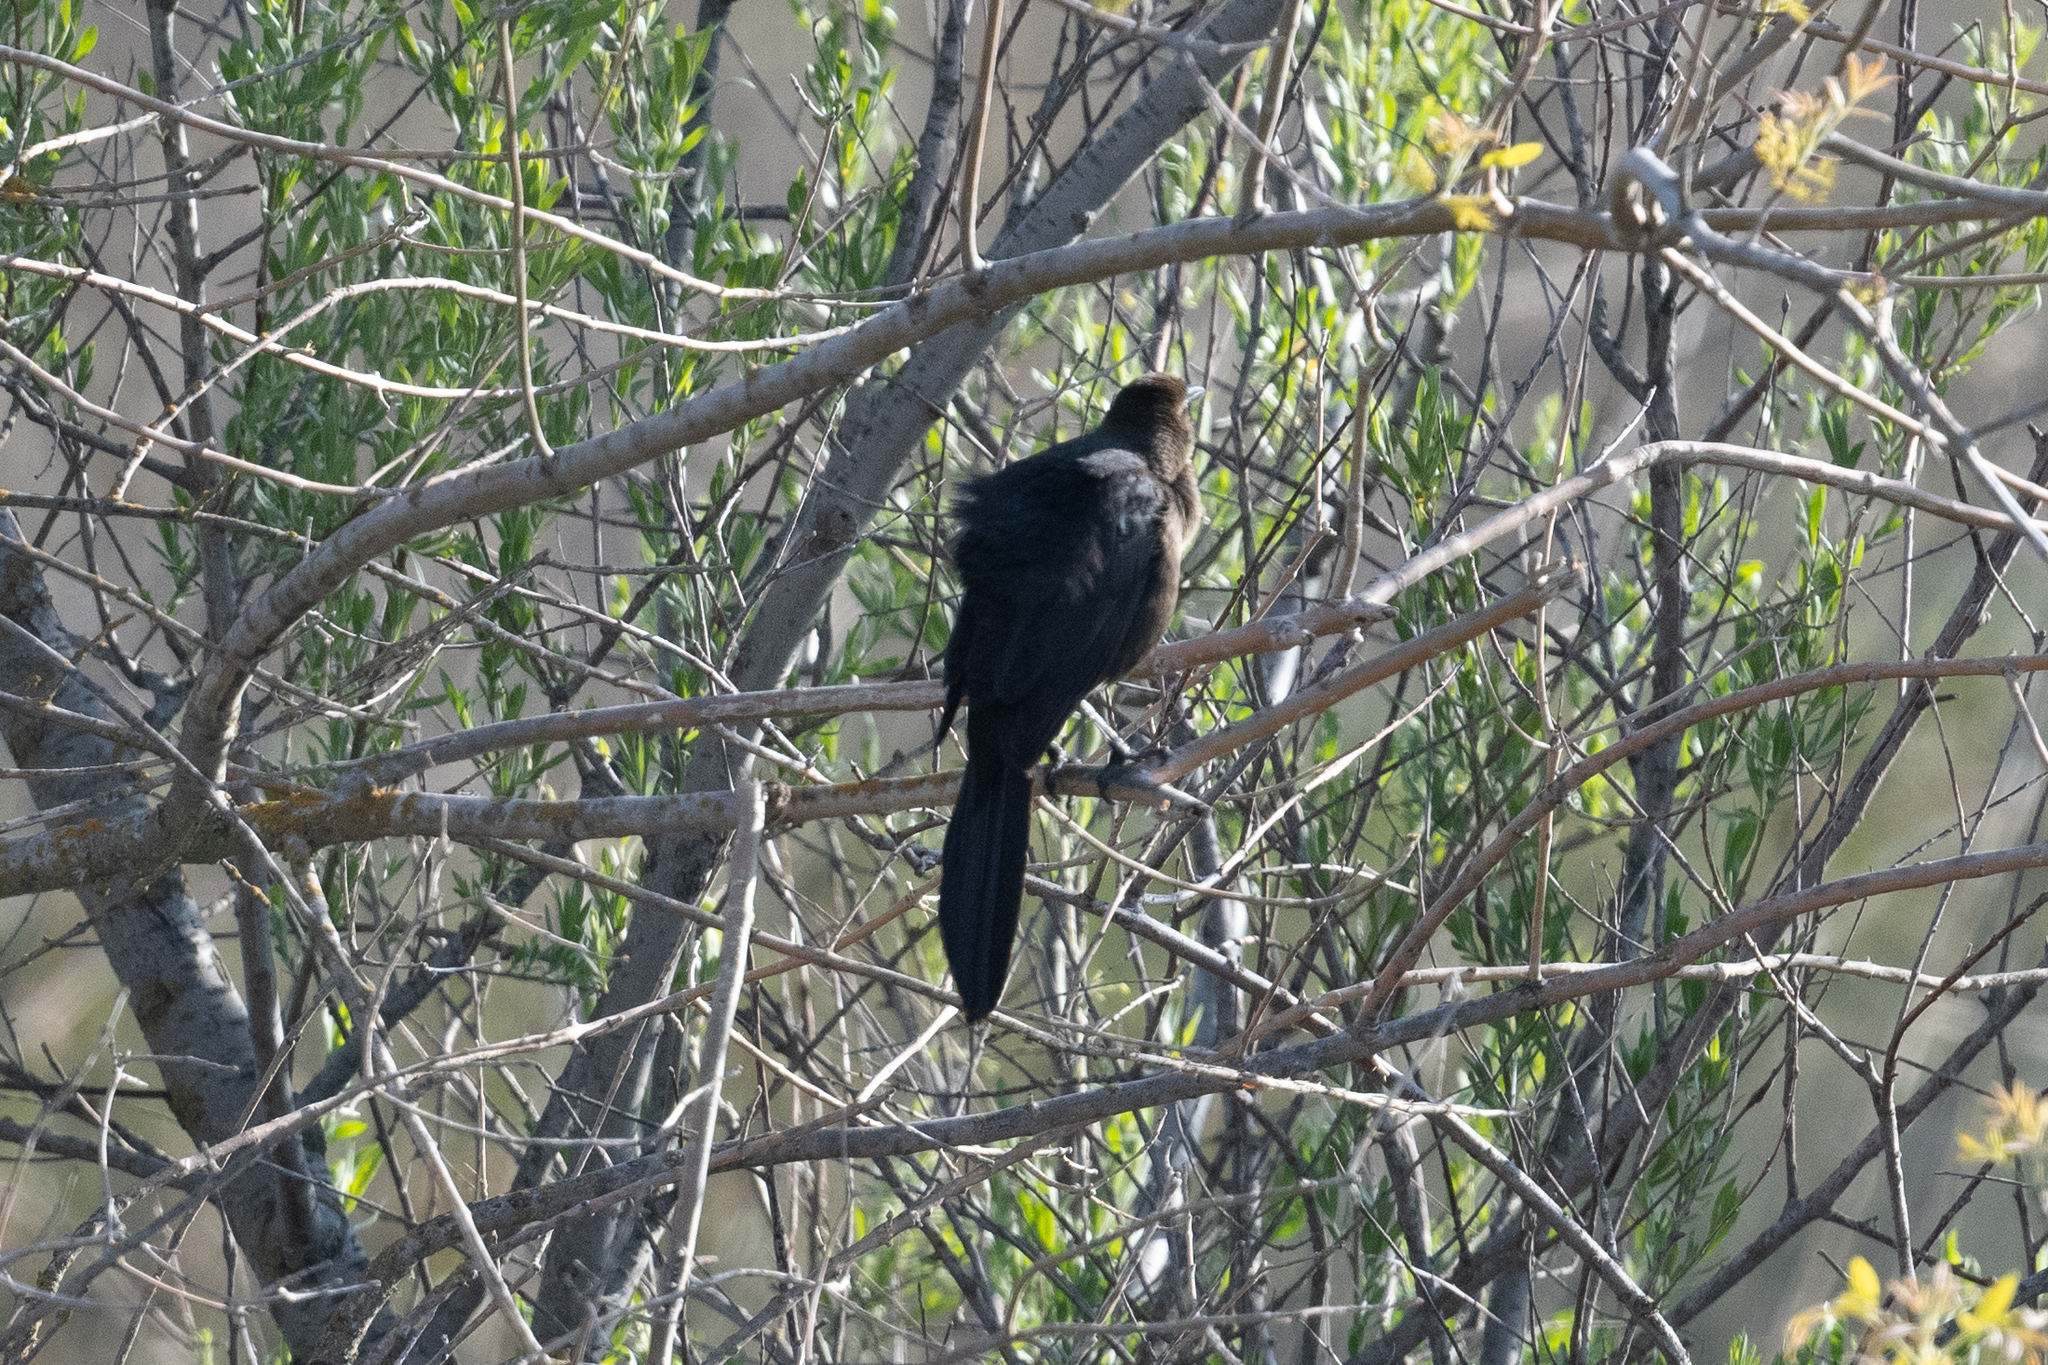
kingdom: Animalia
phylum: Chordata
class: Aves
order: Passeriformes
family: Icteridae
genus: Quiscalus
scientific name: Quiscalus mexicanus
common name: Great-tailed grackle
